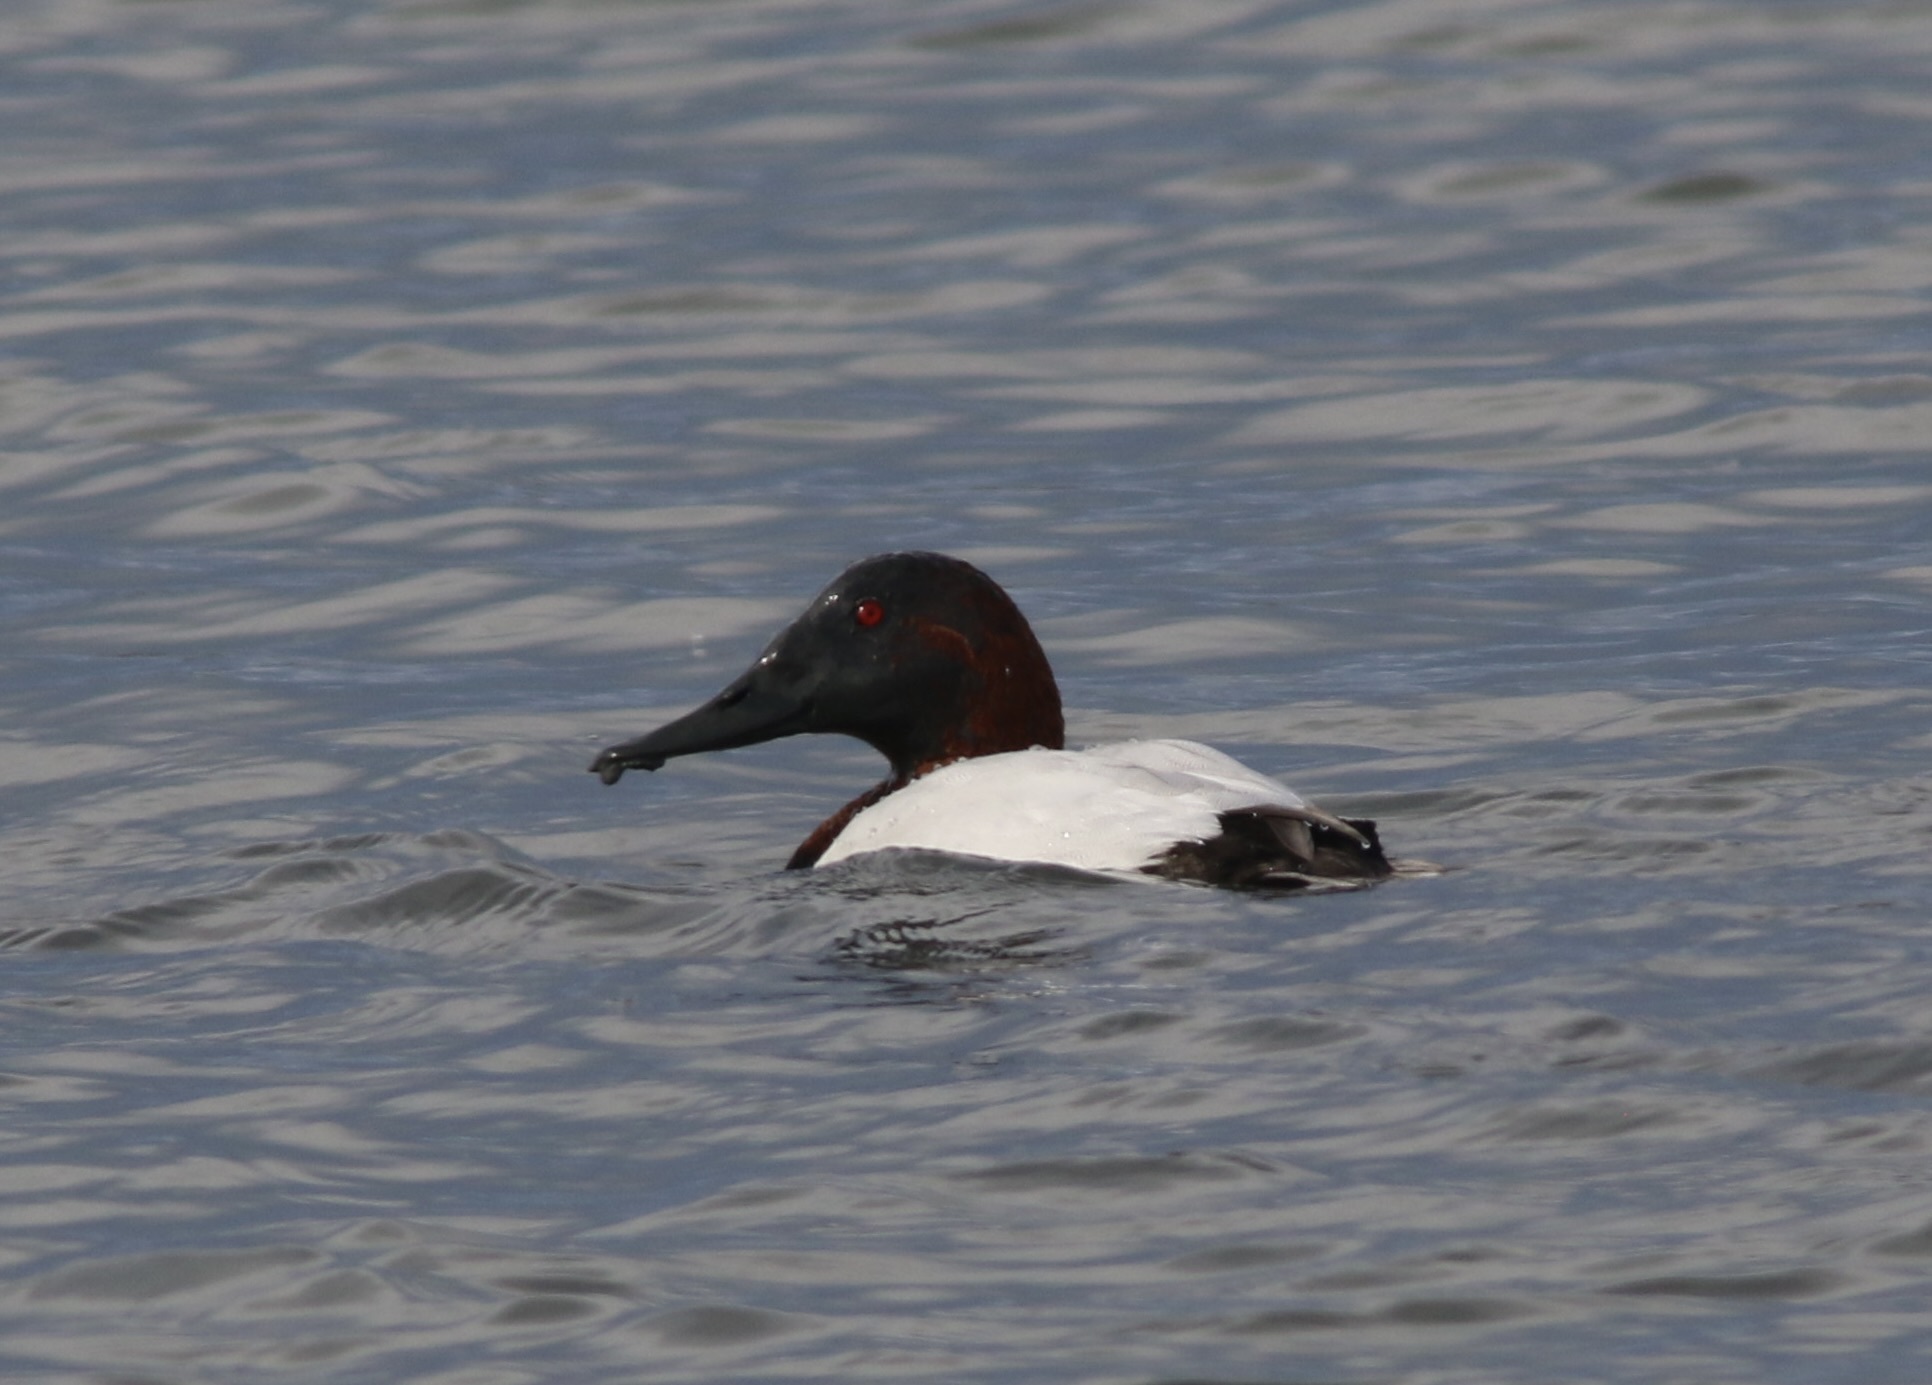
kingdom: Animalia
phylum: Chordata
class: Aves
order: Anseriformes
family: Anatidae
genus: Aythya
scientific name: Aythya valisineria
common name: Canvasback
